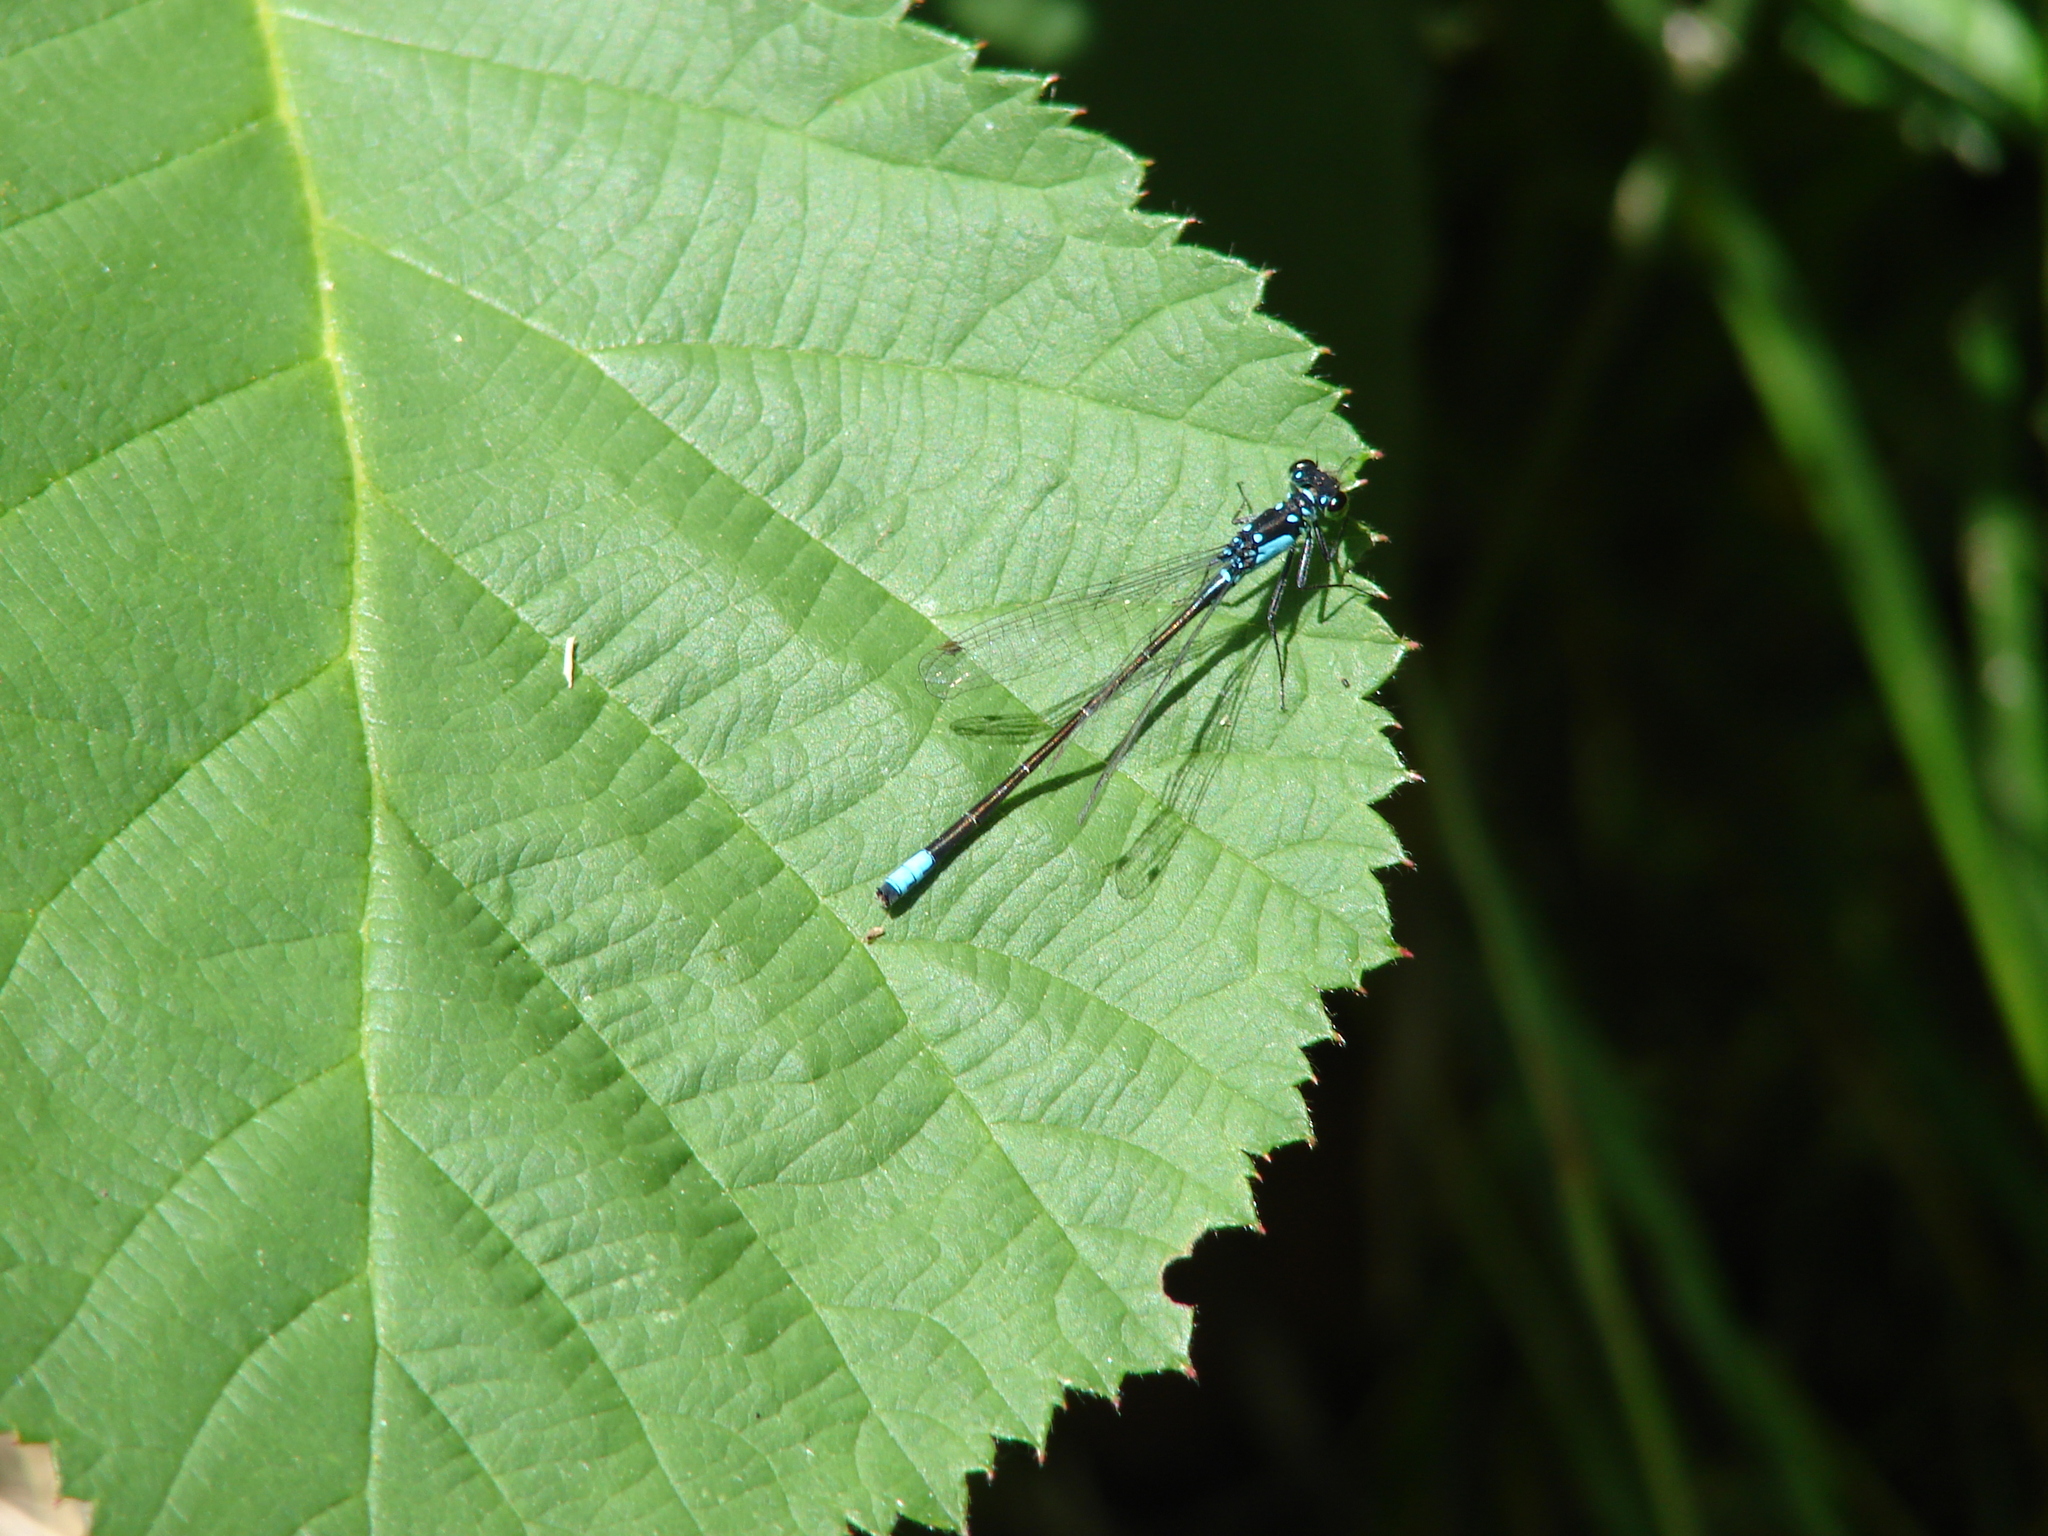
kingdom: Animalia
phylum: Arthropoda
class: Insecta
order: Odonata
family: Coenagrionidae
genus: Ischnura
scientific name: Ischnura cervula
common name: Pacific forktail
